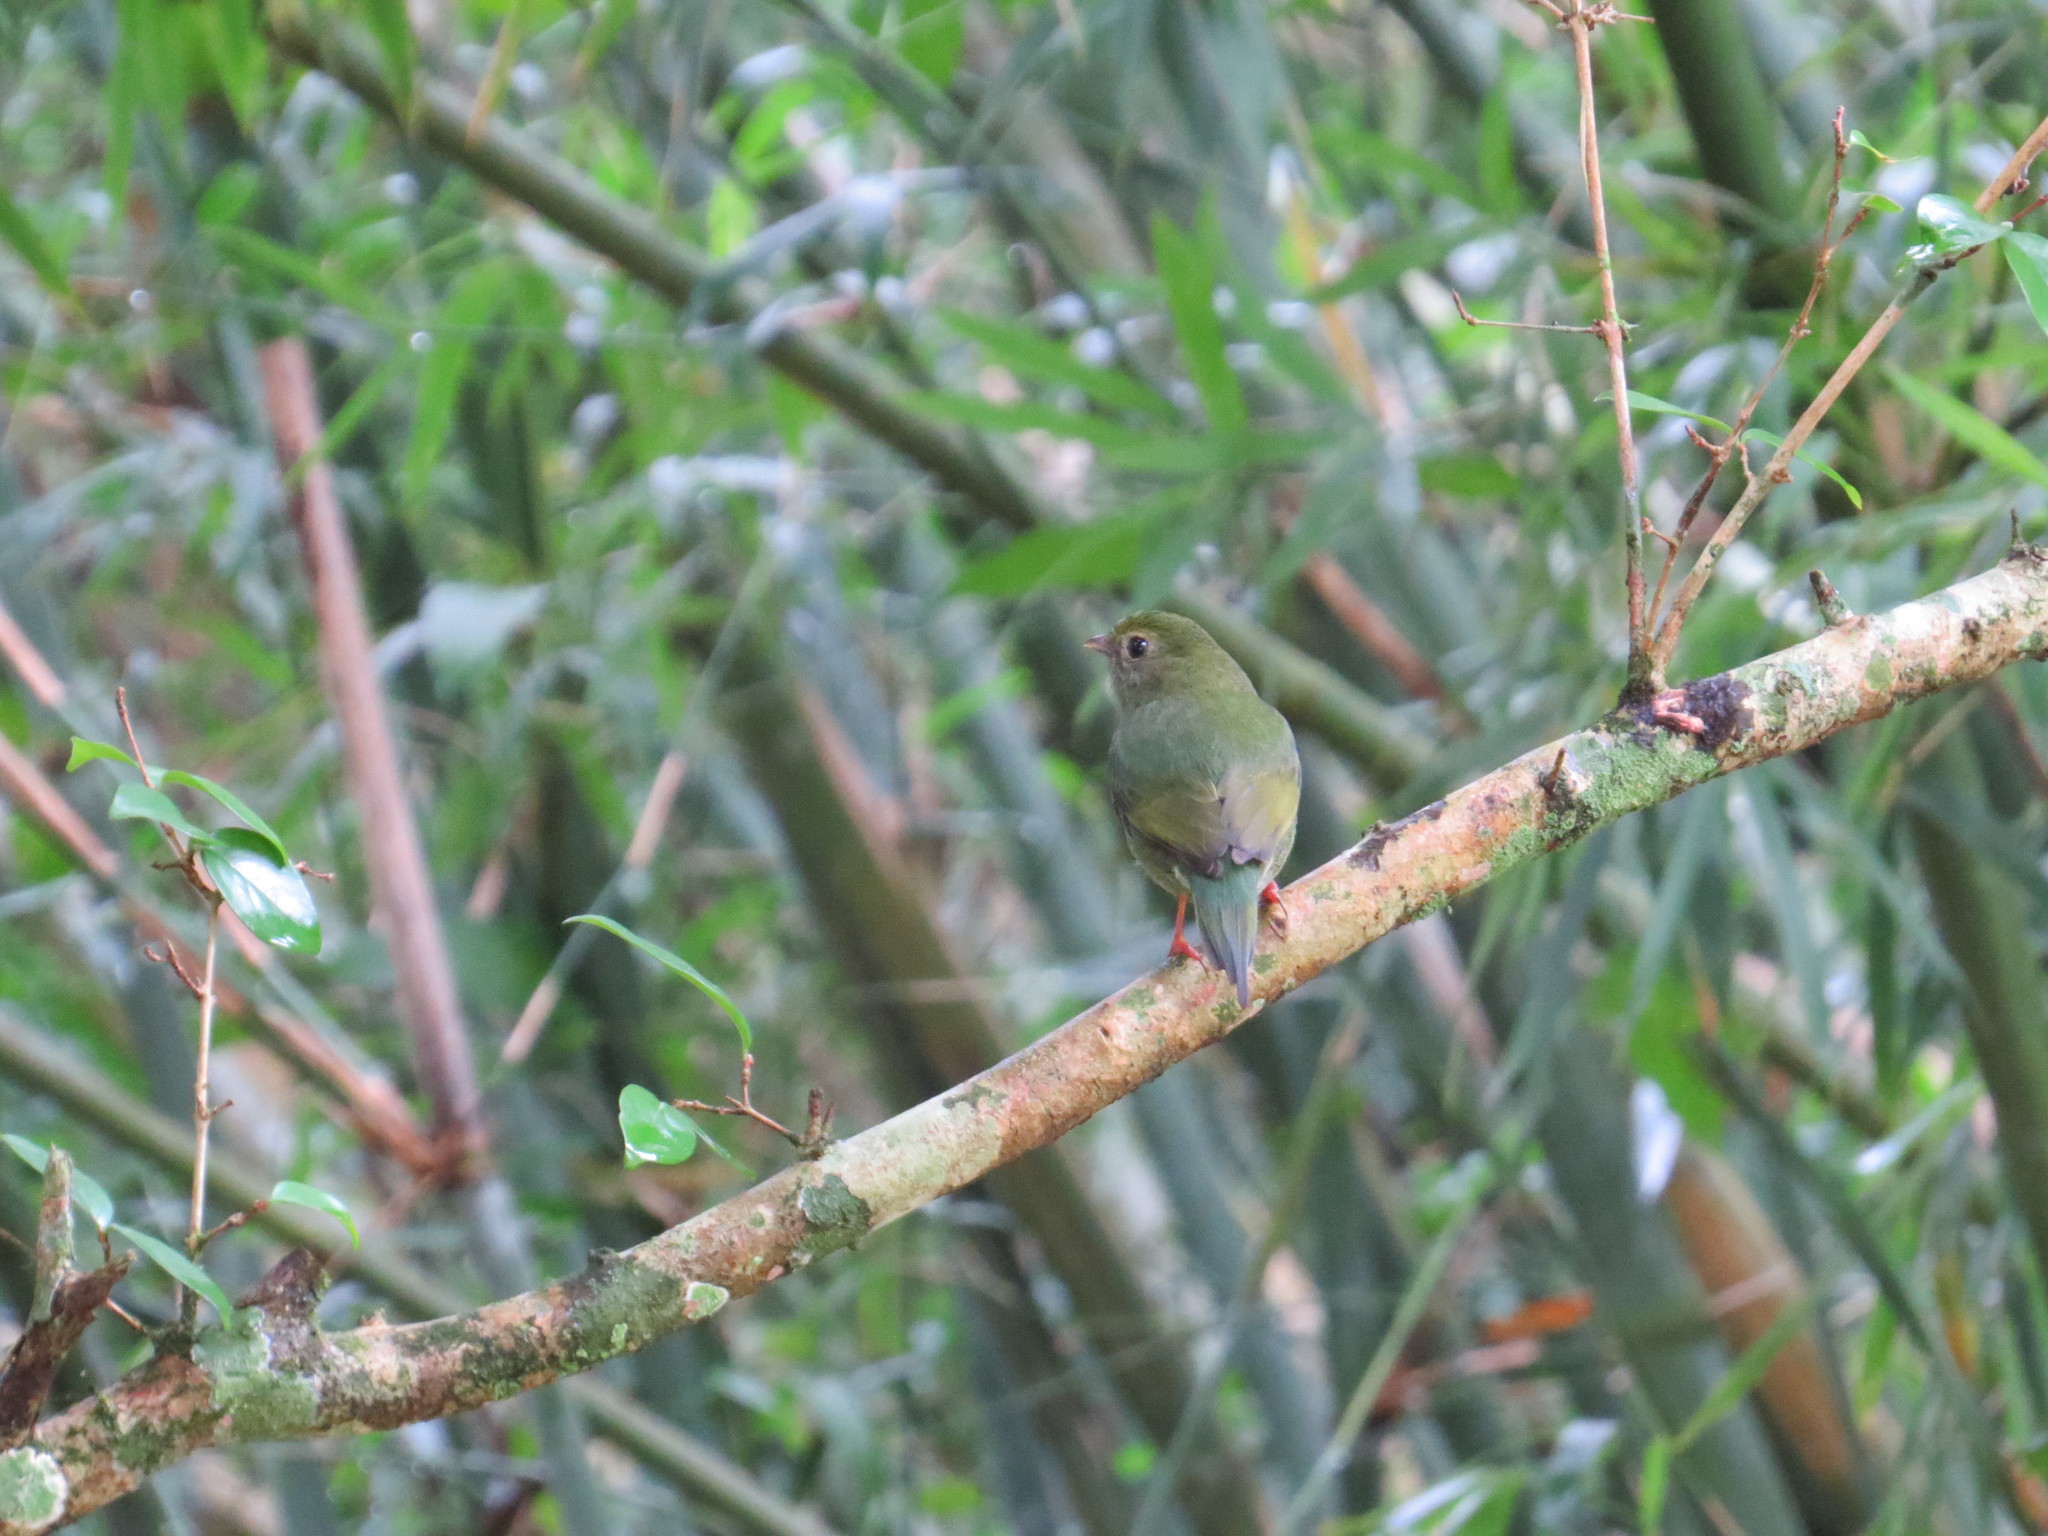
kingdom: Animalia
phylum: Chordata
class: Aves
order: Passeriformes
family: Pipridae
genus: Chiroxiphia
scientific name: Chiroxiphia caudata
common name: Blue manakin
